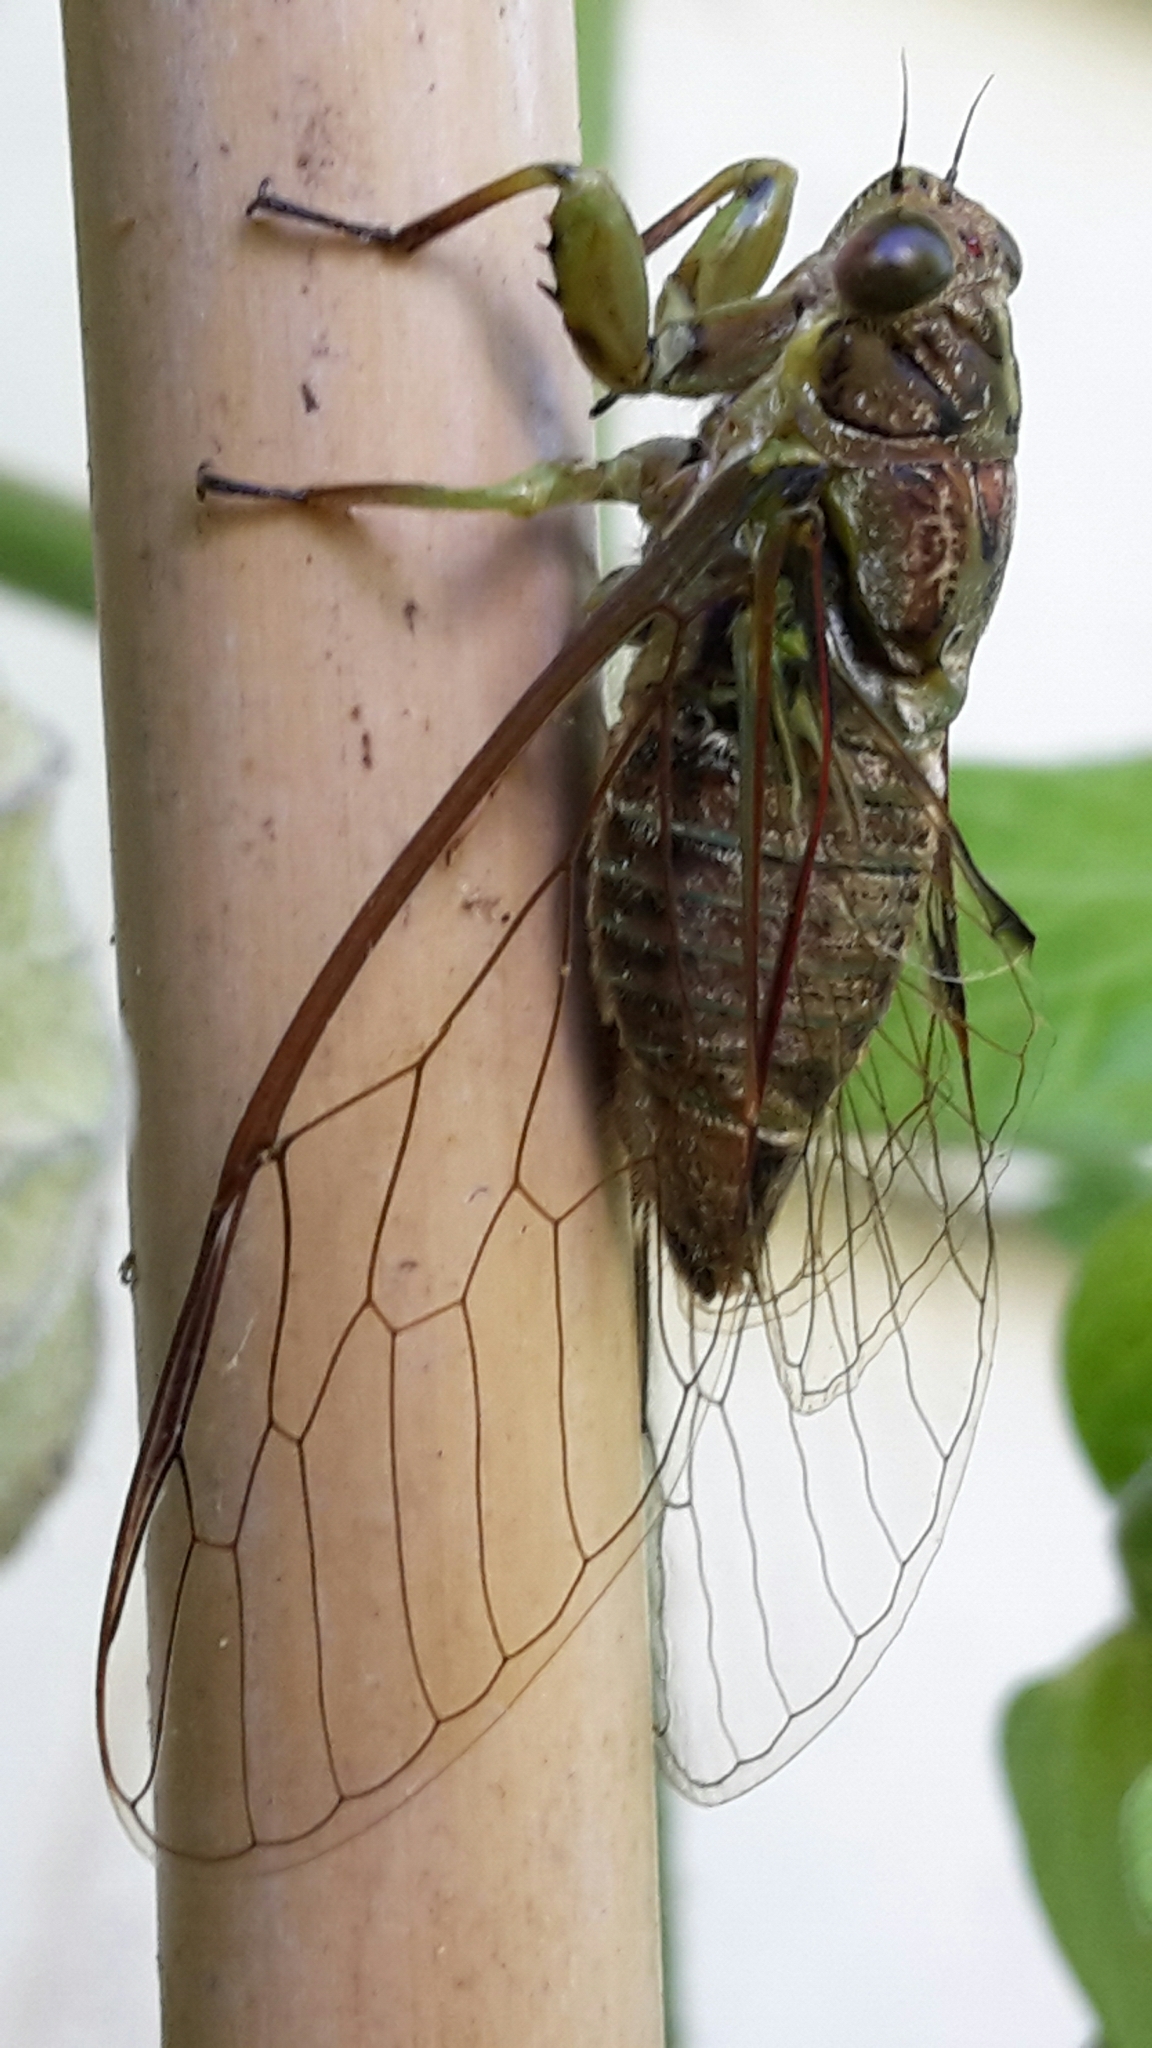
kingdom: Animalia
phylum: Arthropoda
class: Insecta
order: Hemiptera
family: Cicadidae
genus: Kikihia
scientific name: Kikihia scutellaris
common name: Lesser bronze cicada
